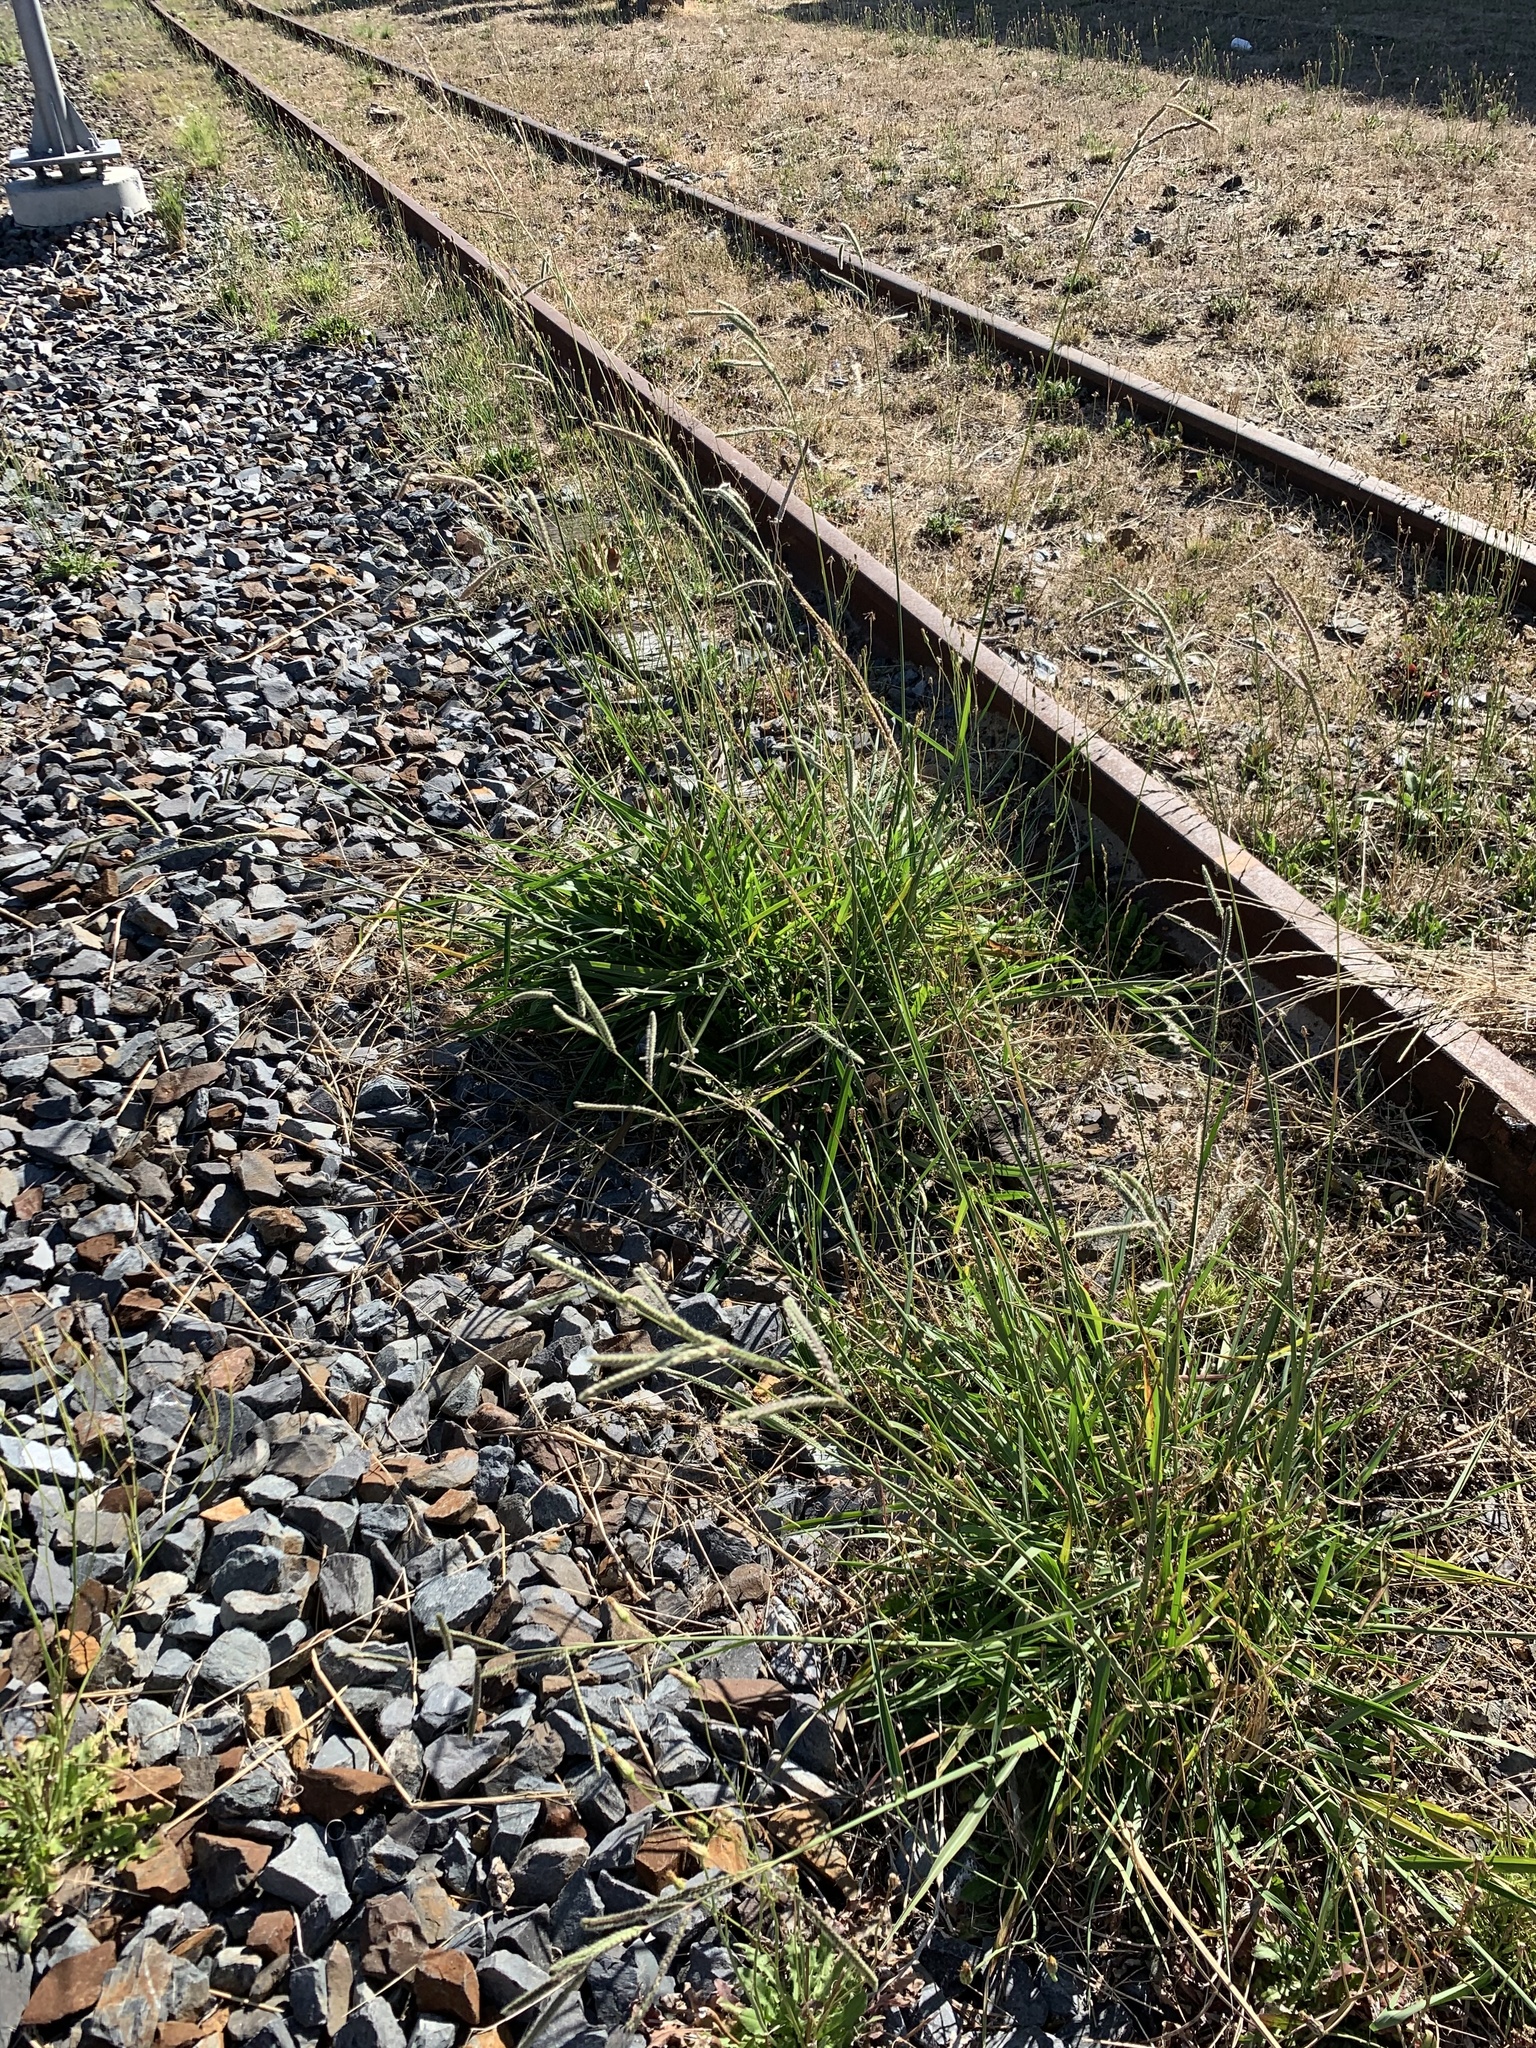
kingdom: Plantae
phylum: Tracheophyta
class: Liliopsida
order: Poales
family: Poaceae
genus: Paspalum
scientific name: Paspalum urvillei
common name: Vasey's grass
